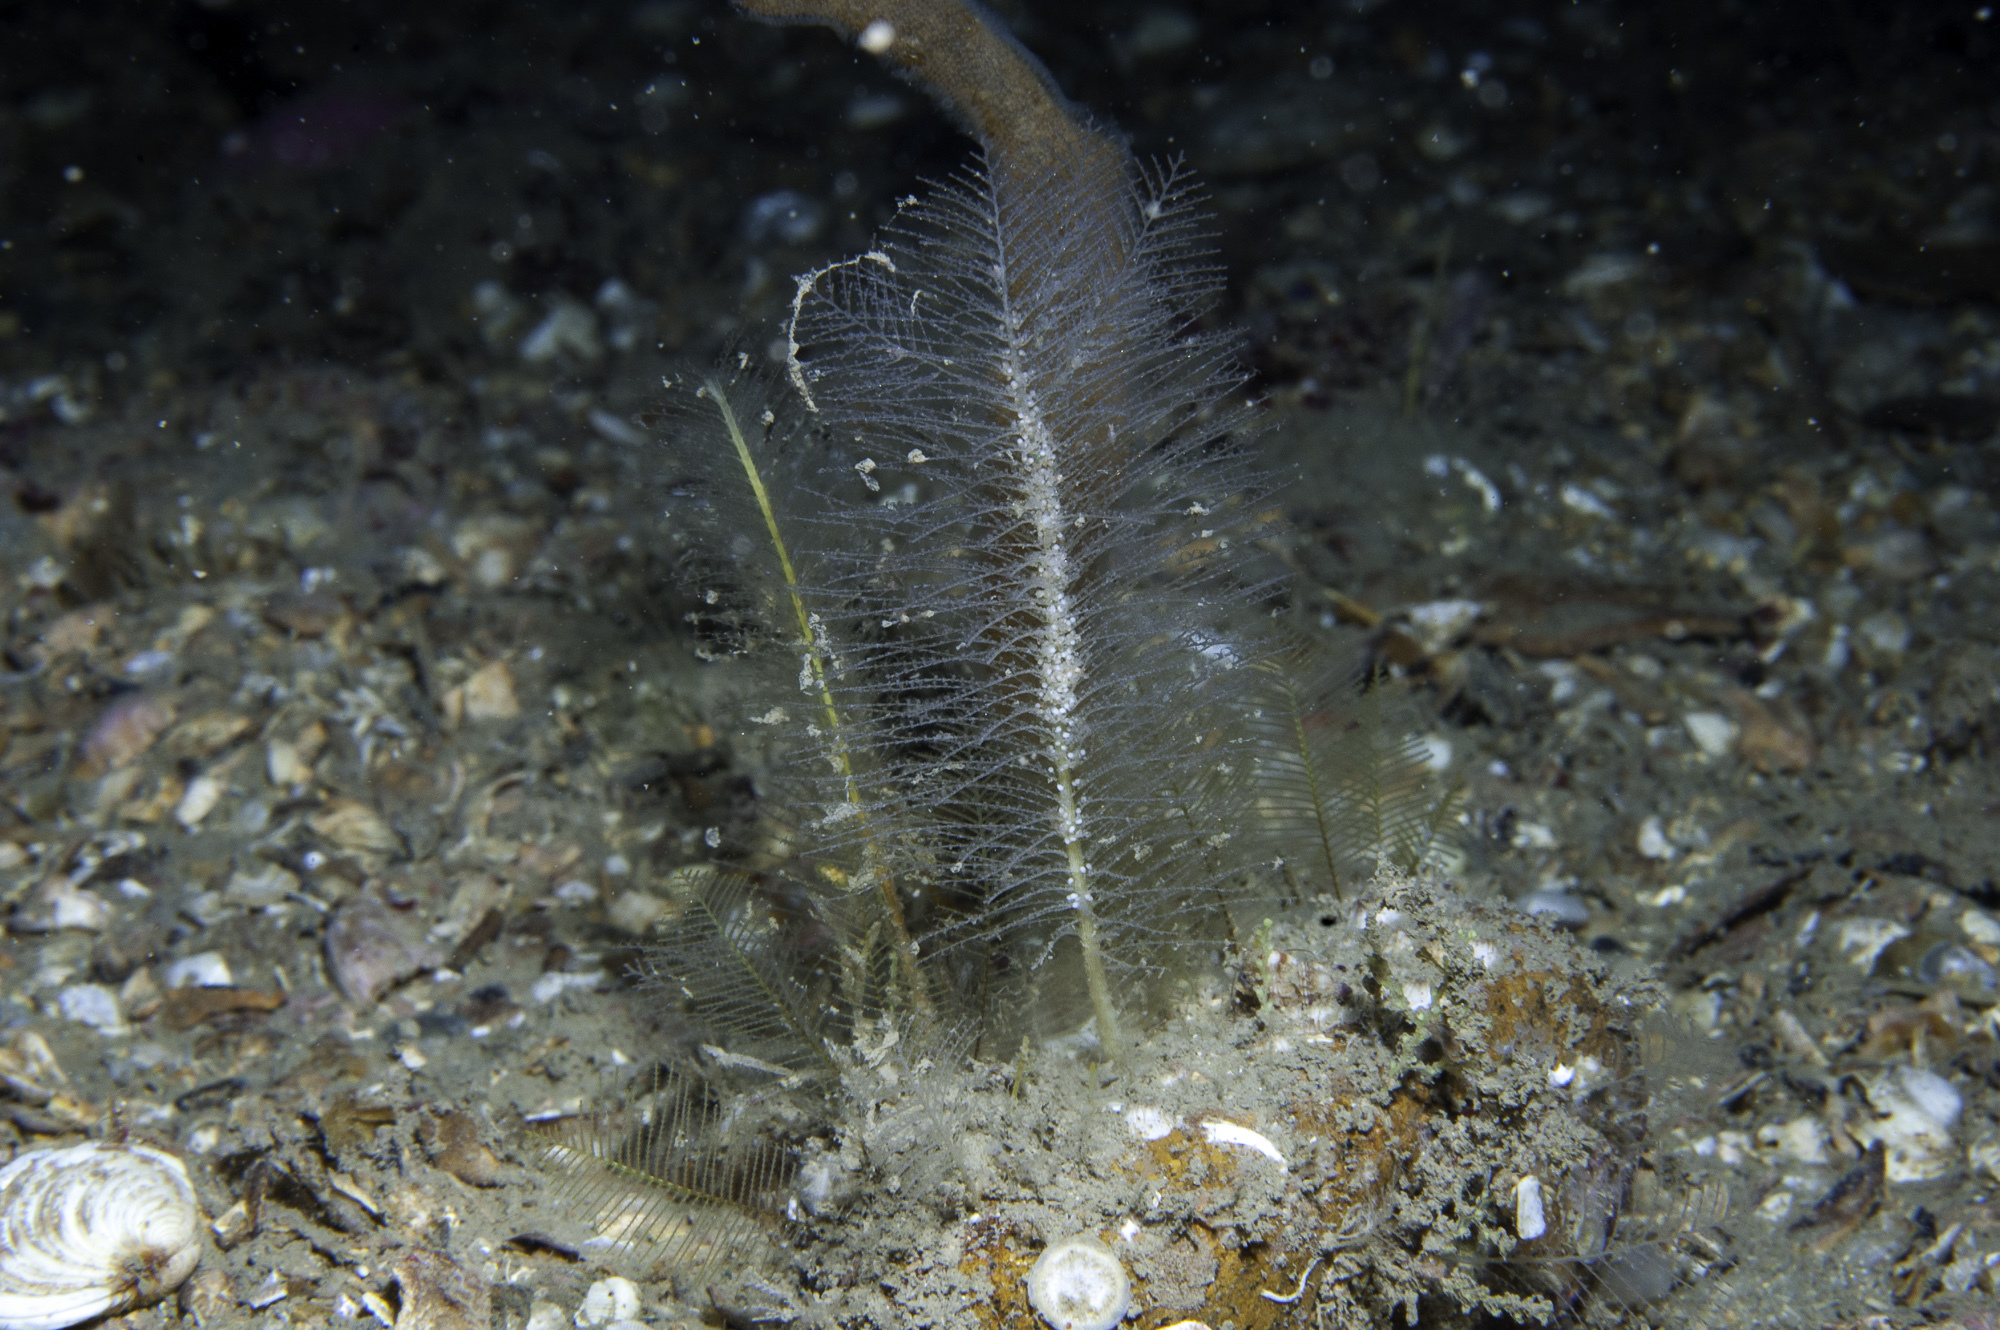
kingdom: Animalia
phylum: Cnidaria
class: Hydrozoa
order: Leptothecata
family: Schizotrichidae
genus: Schizotricha
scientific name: Schizotricha frutescens
